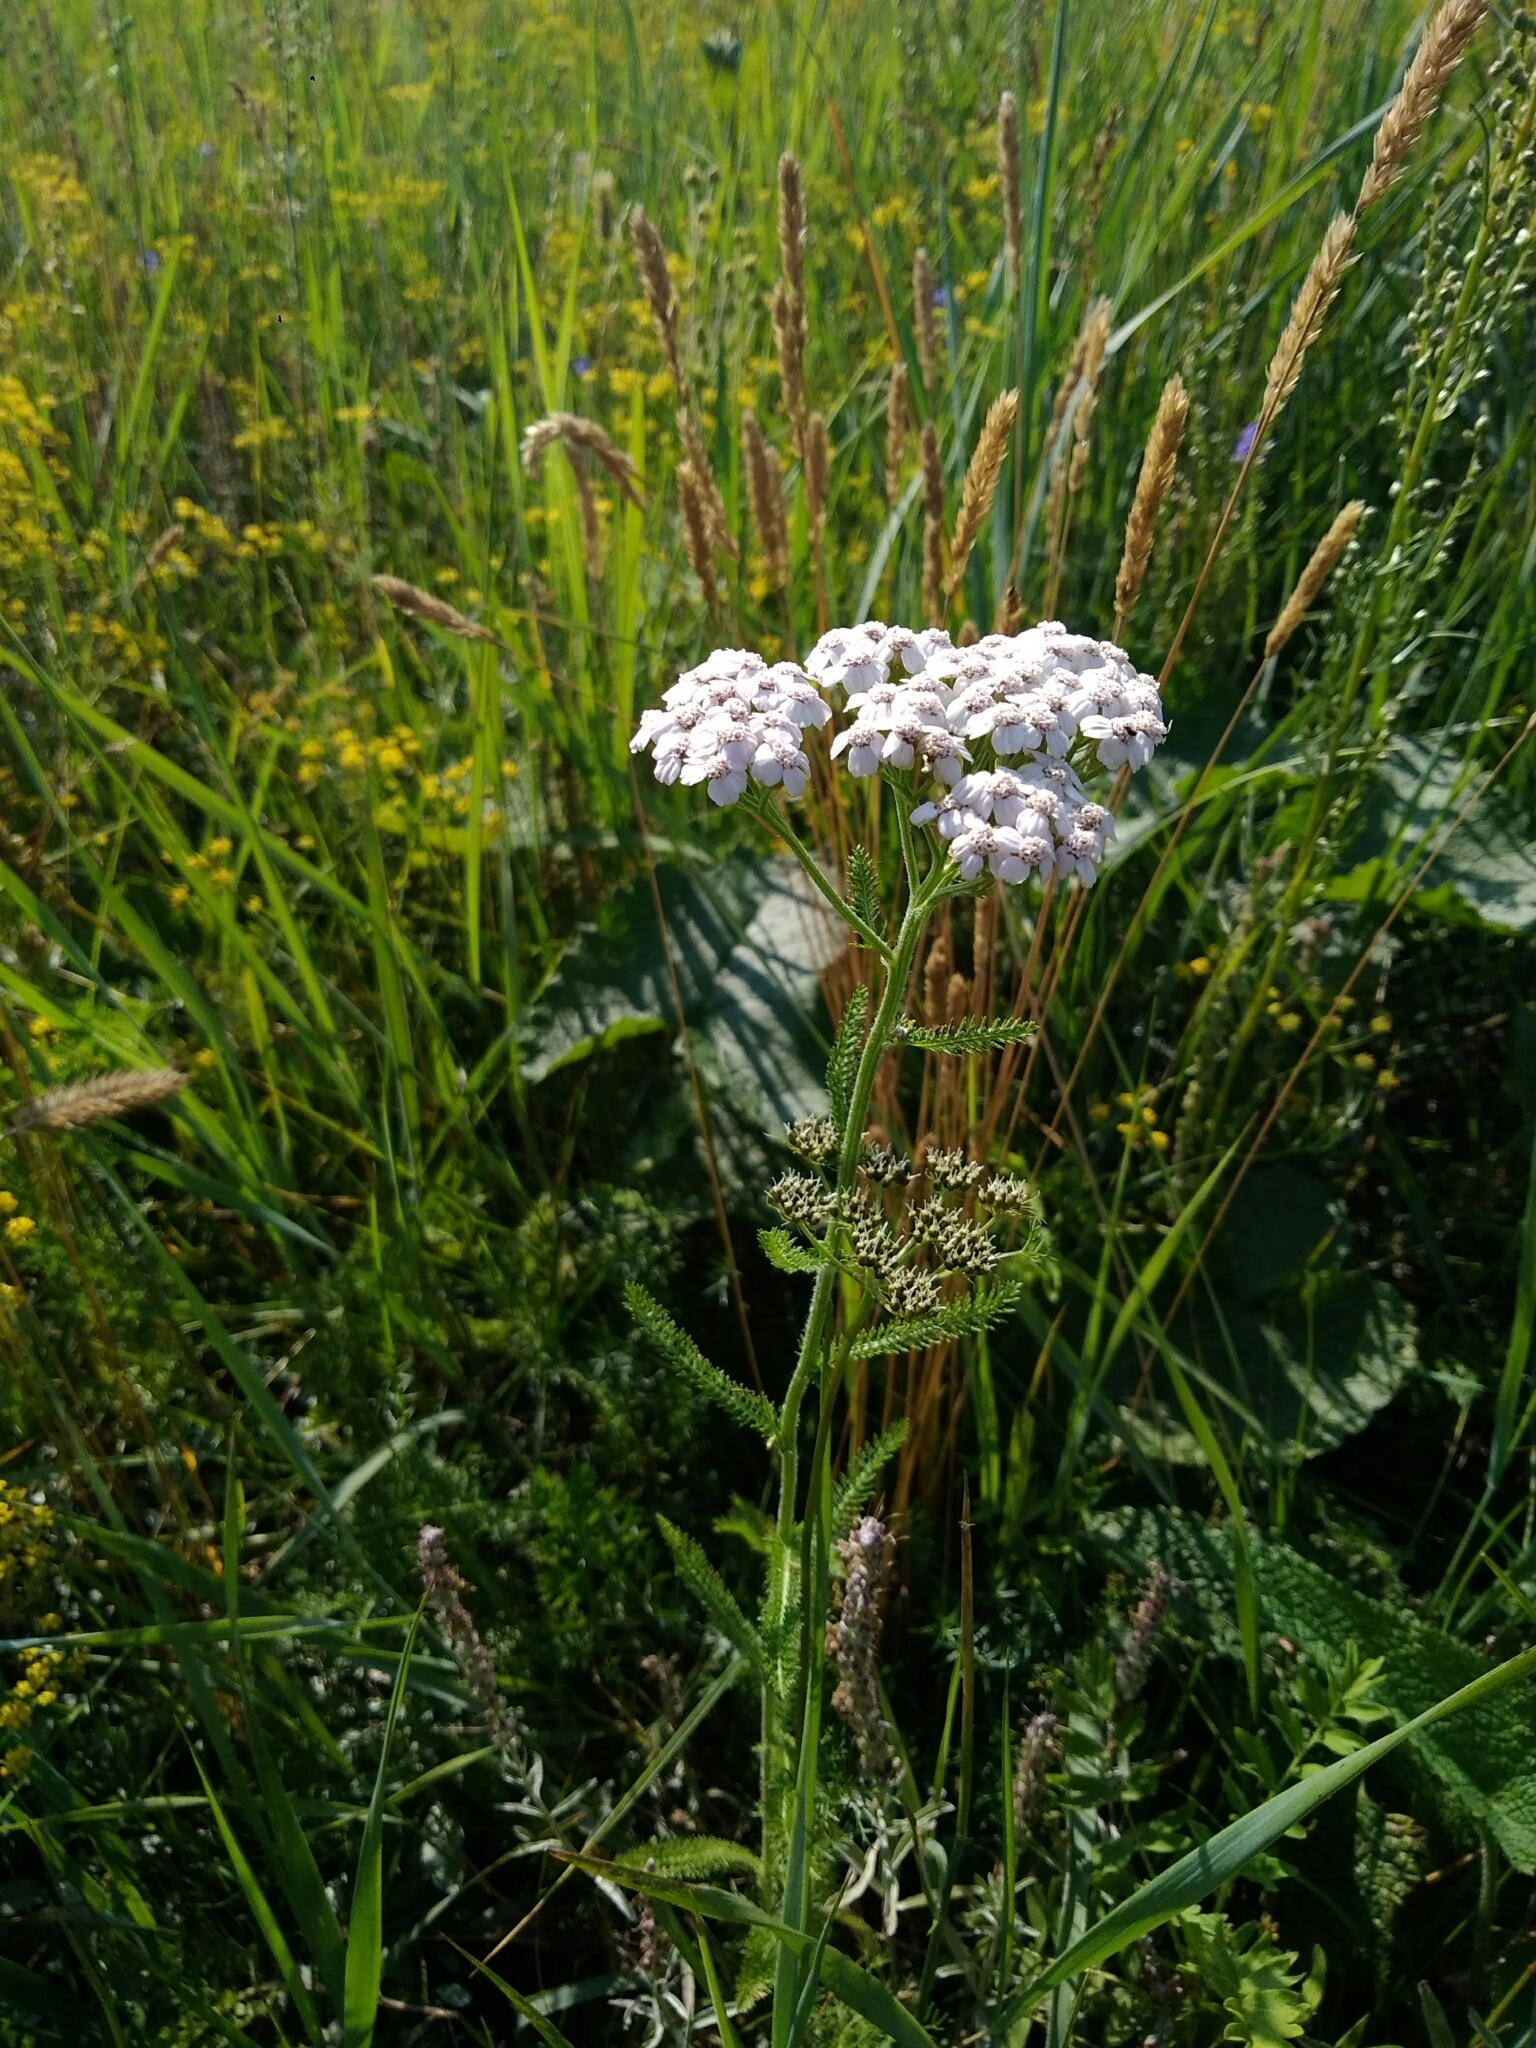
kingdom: Plantae
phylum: Tracheophyta
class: Magnoliopsida
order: Asterales
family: Asteraceae
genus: Achillea
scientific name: Achillea millefolium
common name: Yarrow
